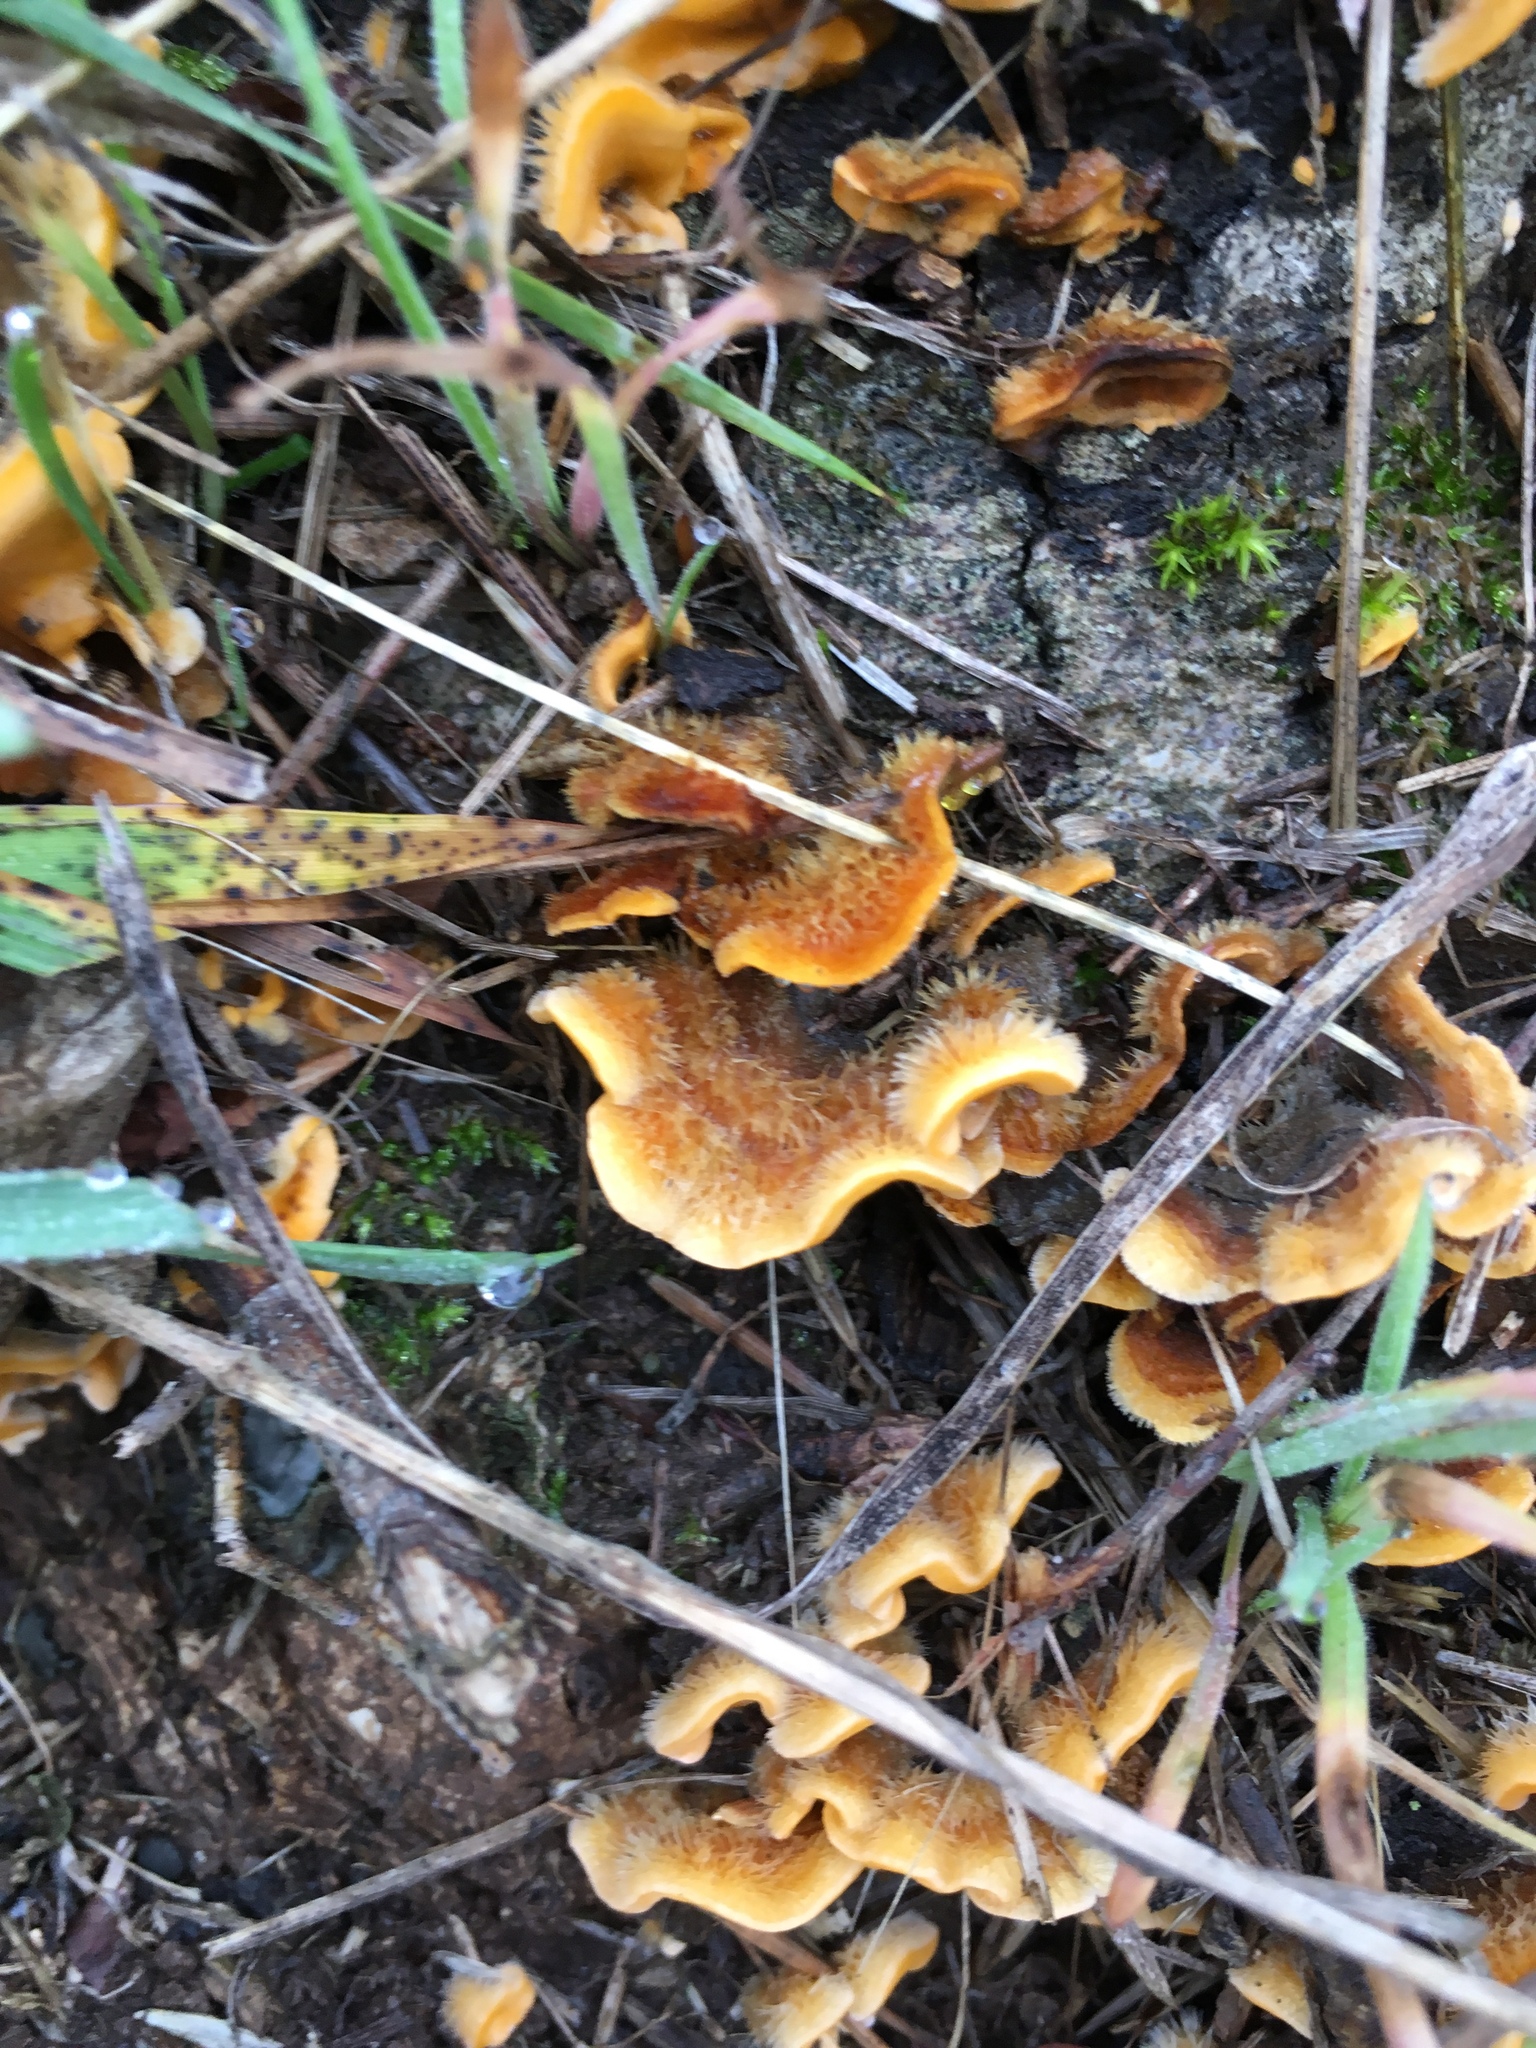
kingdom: Fungi
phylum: Basidiomycota
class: Agaricomycetes
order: Russulales
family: Stereaceae
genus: Stereum
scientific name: Stereum hirsutum
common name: Hairy curtain crust
